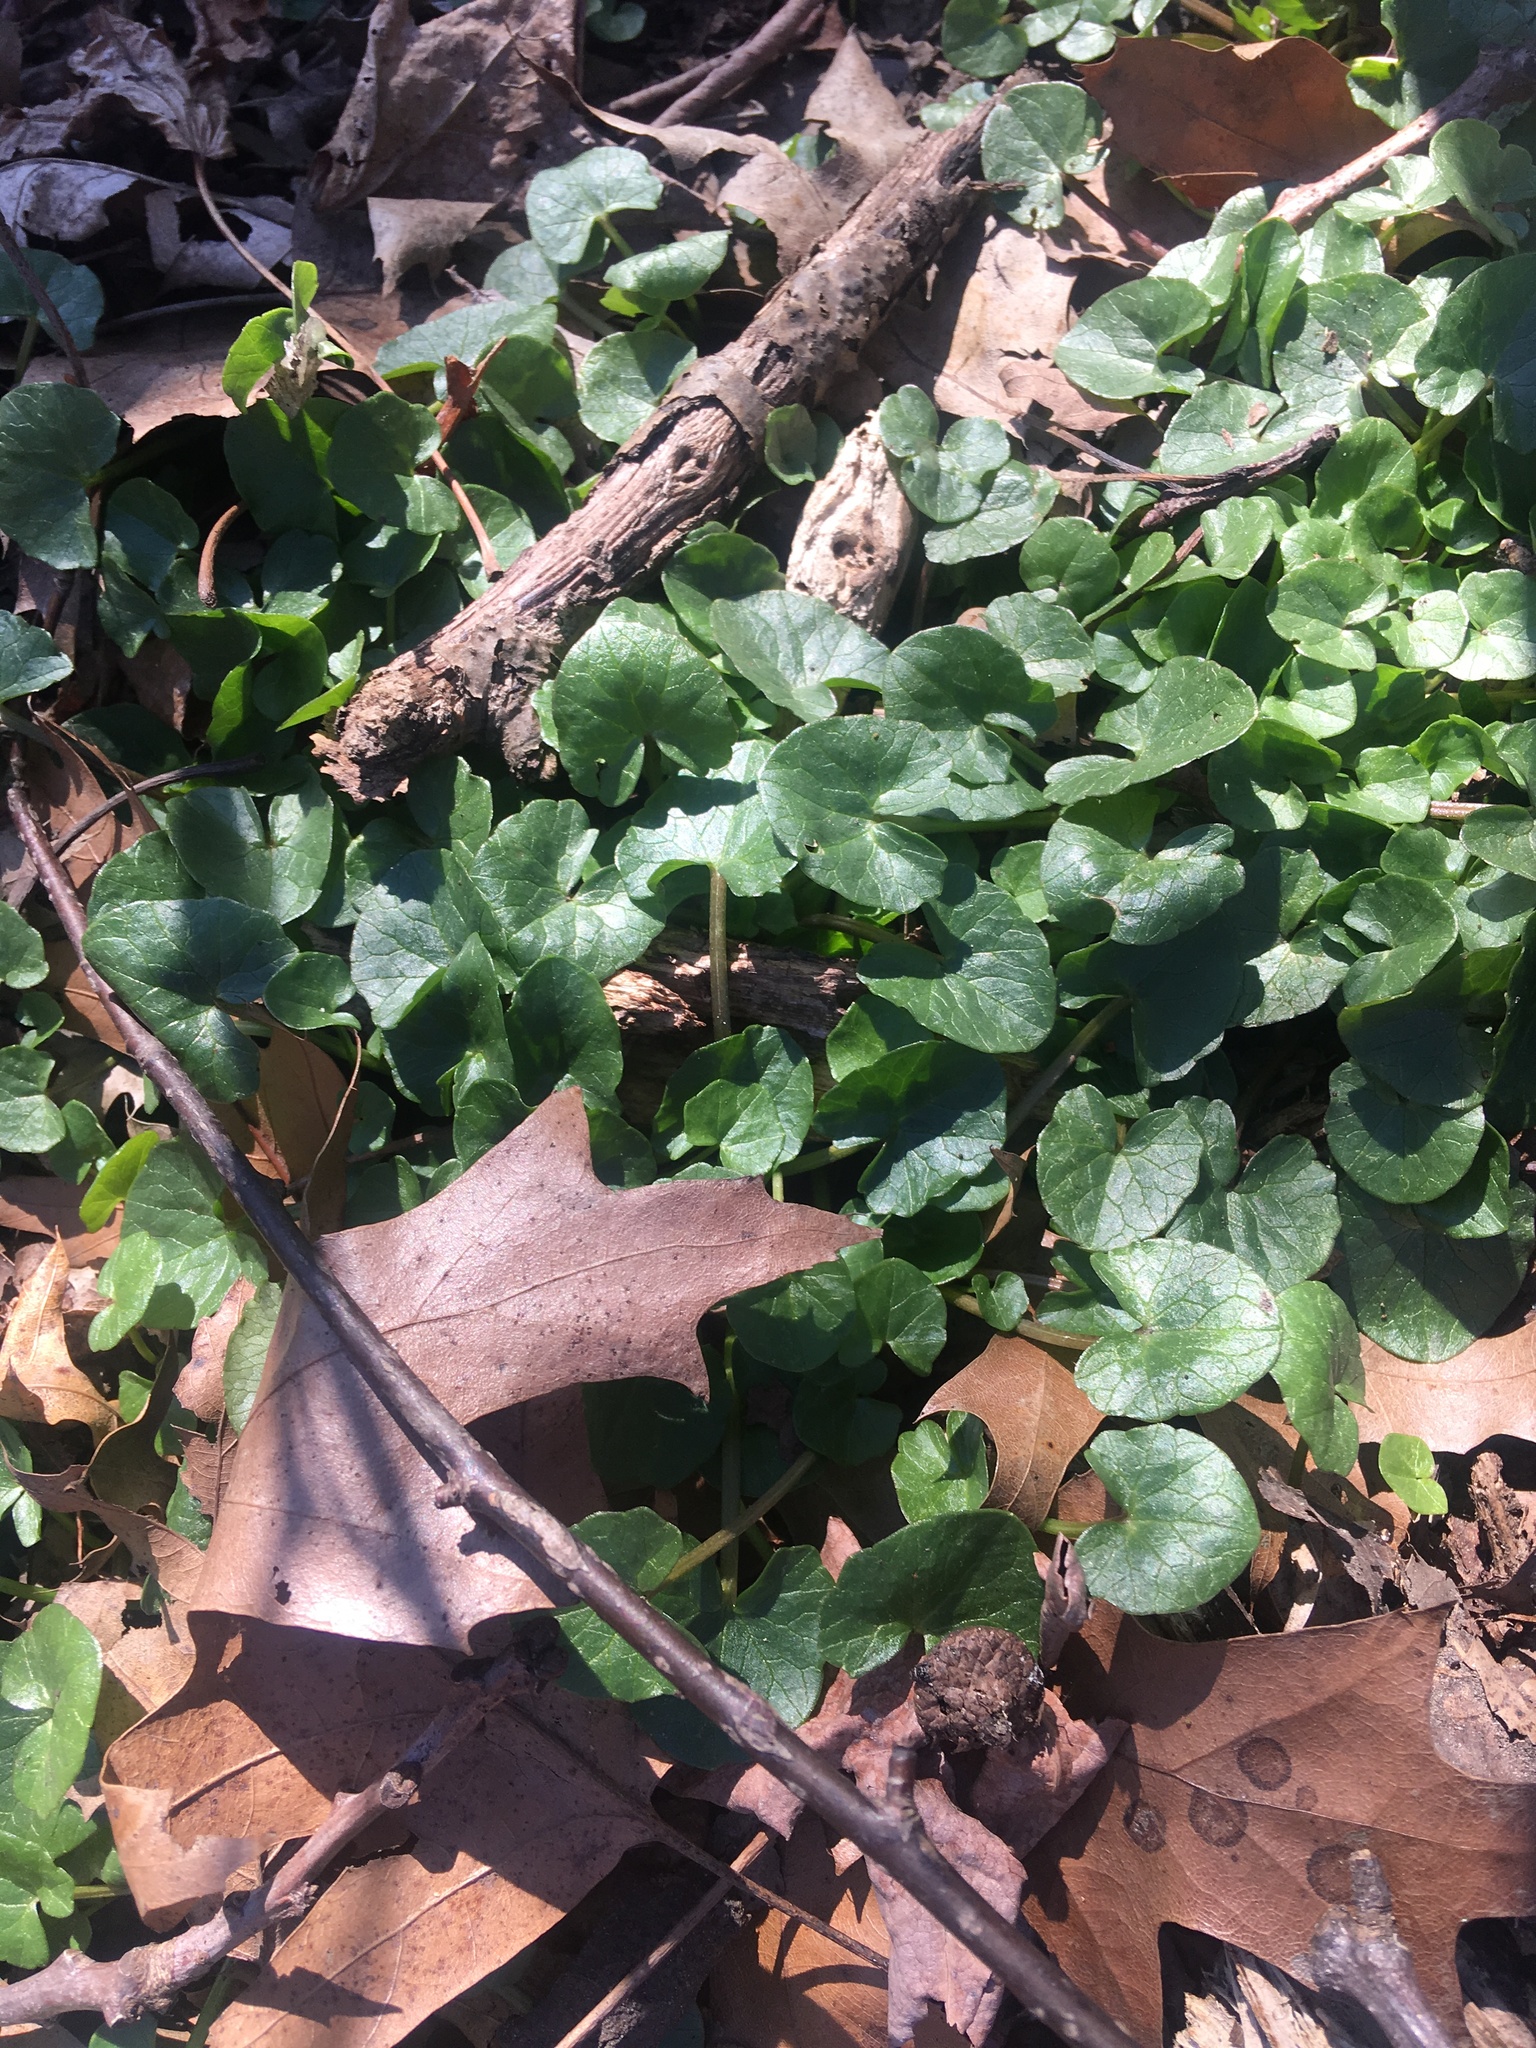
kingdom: Plantae
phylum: Tracheophyta
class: Magnoliopsida
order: Ranunculales
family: Ranunculaceae
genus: Ficaria
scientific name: Ficaria verna
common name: Lesser celandine
